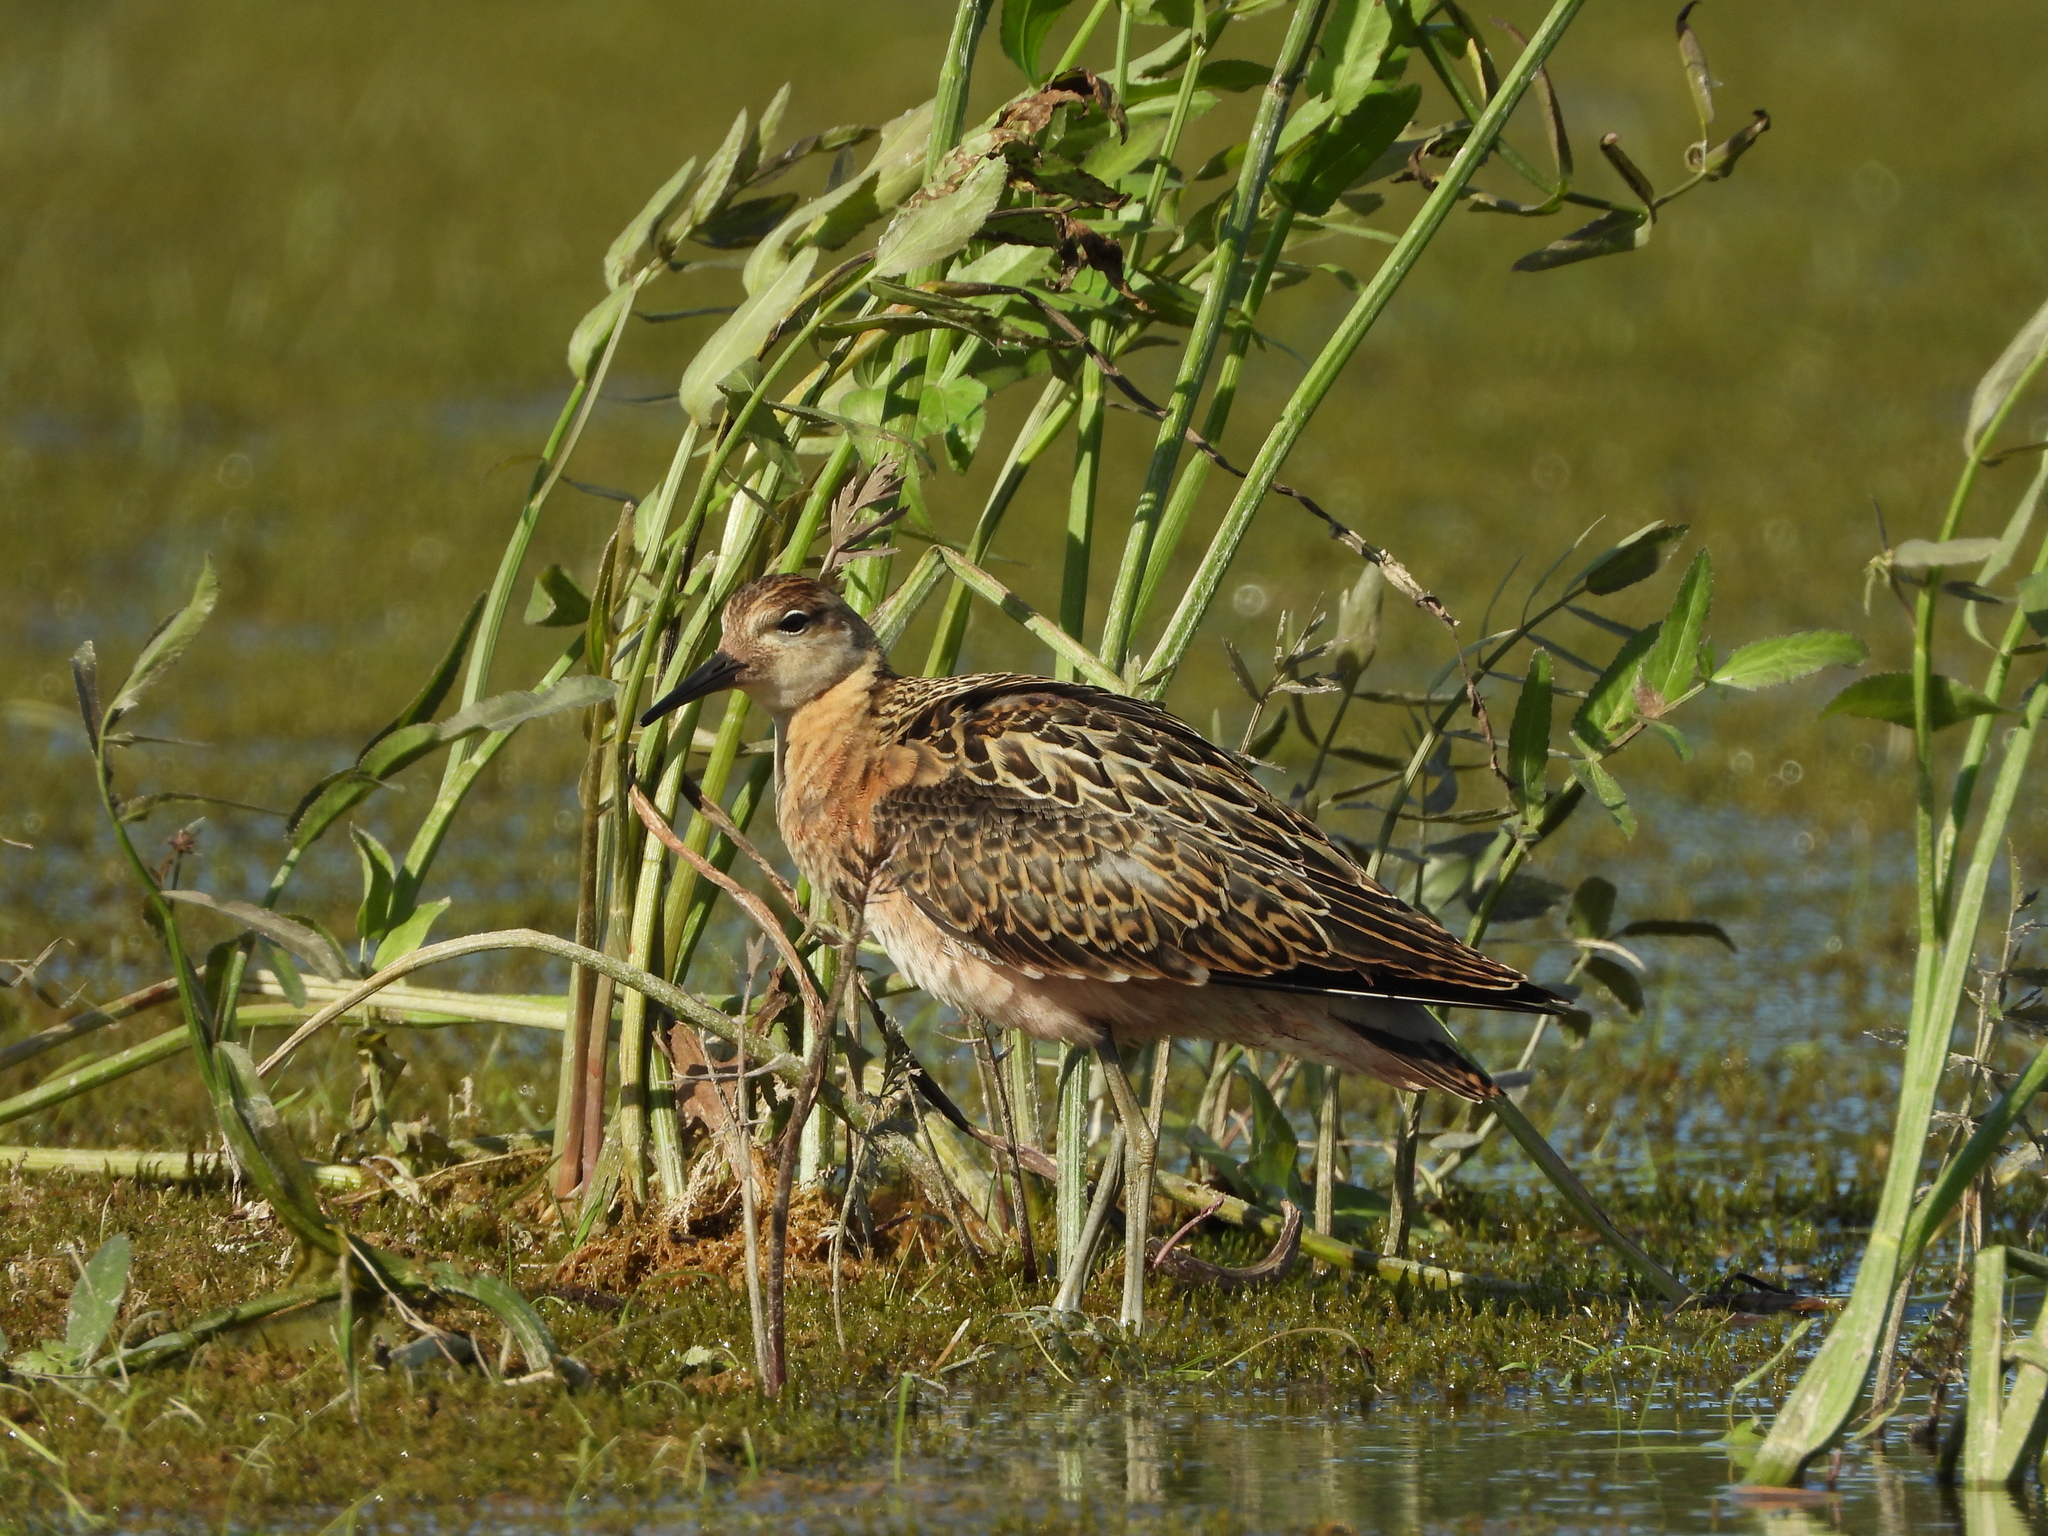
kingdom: Animalia
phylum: Chordata
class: Aves
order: Charadriiformes
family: Scolopacidae
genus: Calidris
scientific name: Calidris pugnax
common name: Ruff
